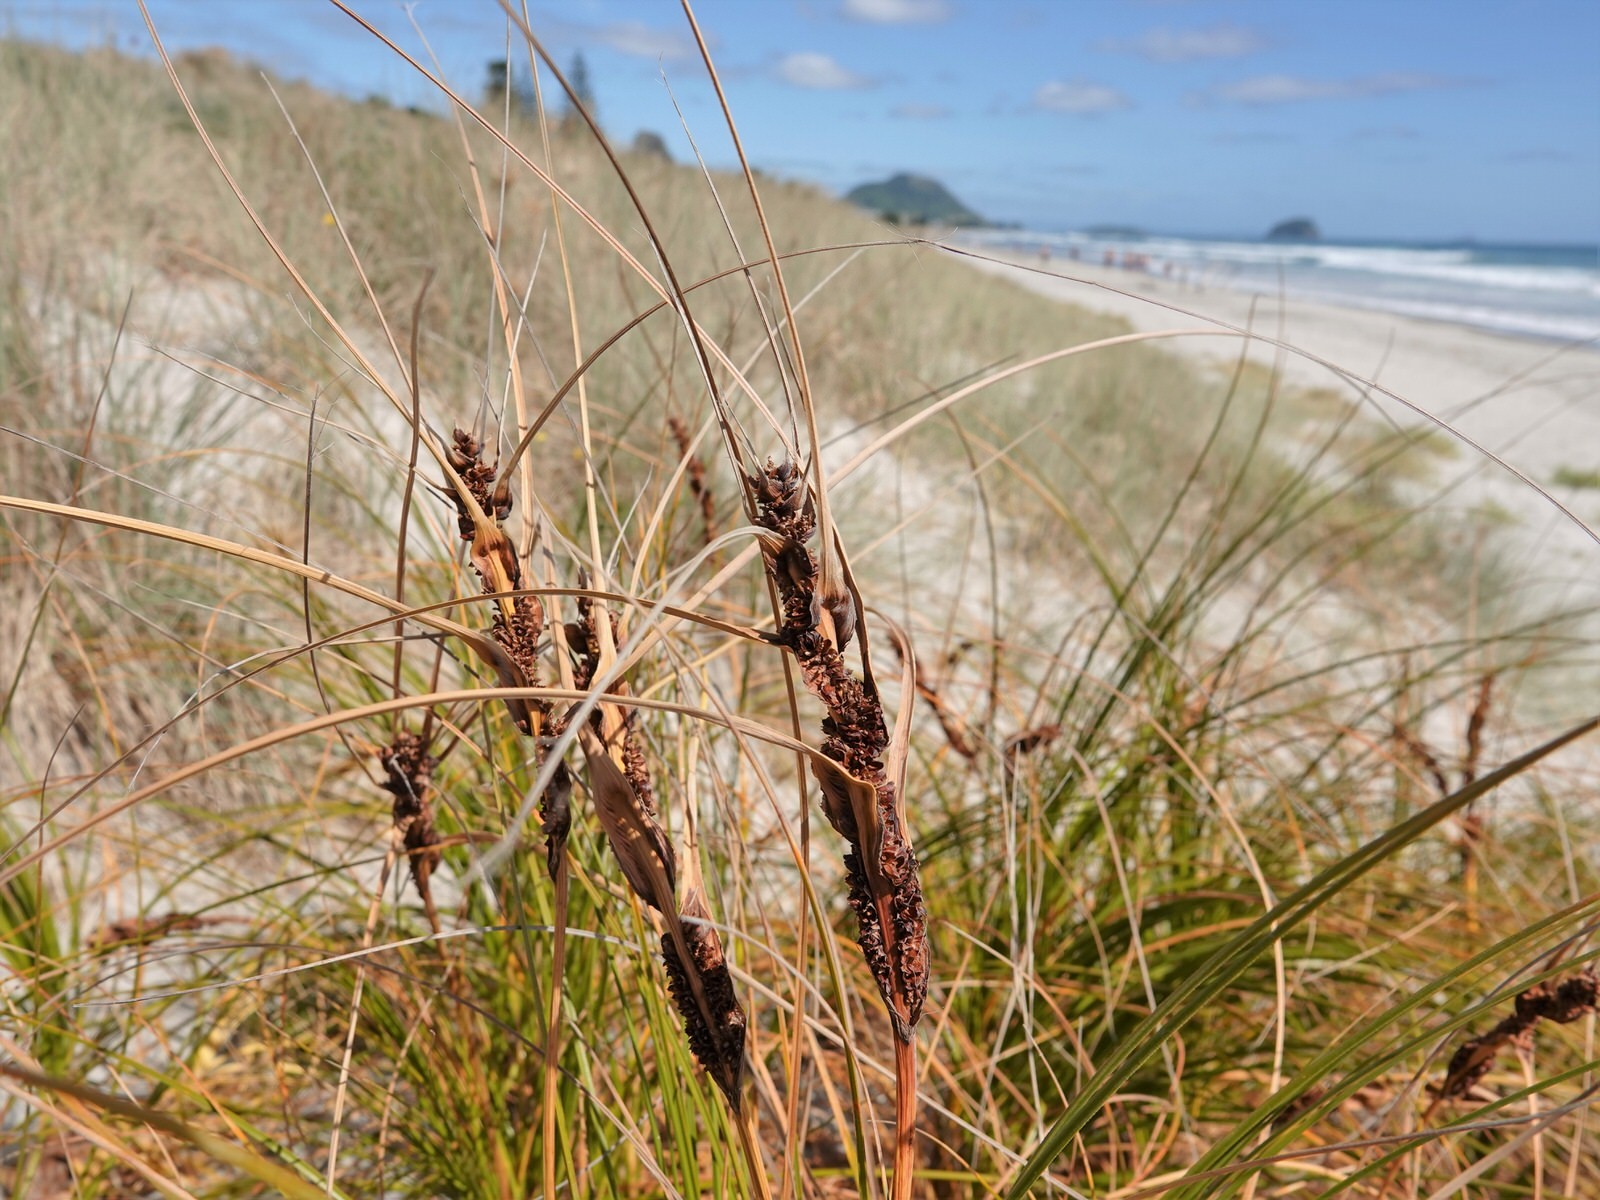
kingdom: Plantae
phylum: Tracheophyta
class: Liliopsida
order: Poales
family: Cyperaceae
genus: Ficinia
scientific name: Ficinia spiralis
